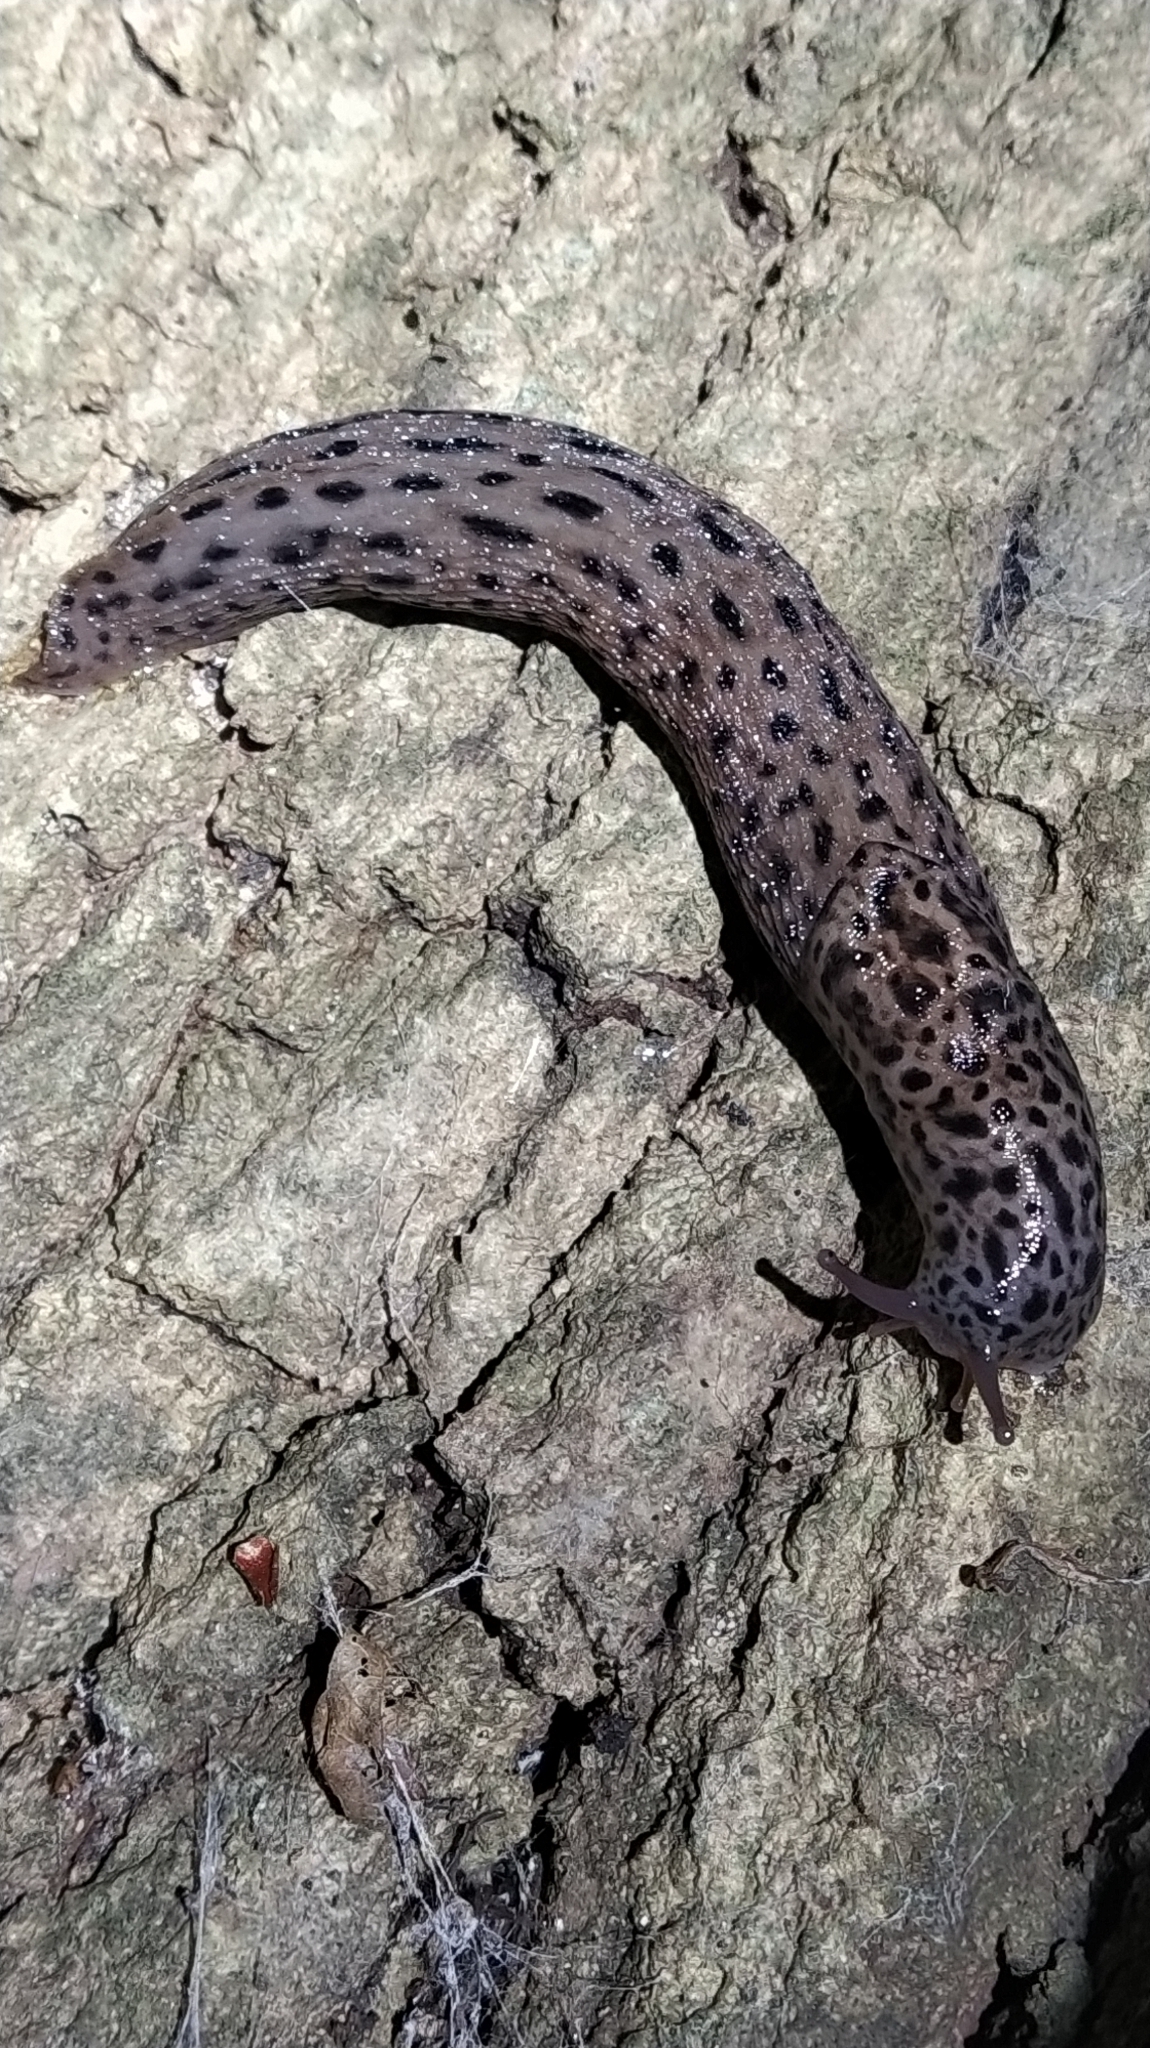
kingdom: Animalia
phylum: Mollusca
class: Gastropoda
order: Stylommatophora
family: Limacidae
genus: Limax
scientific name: Limax maximus
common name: Great grey slug
